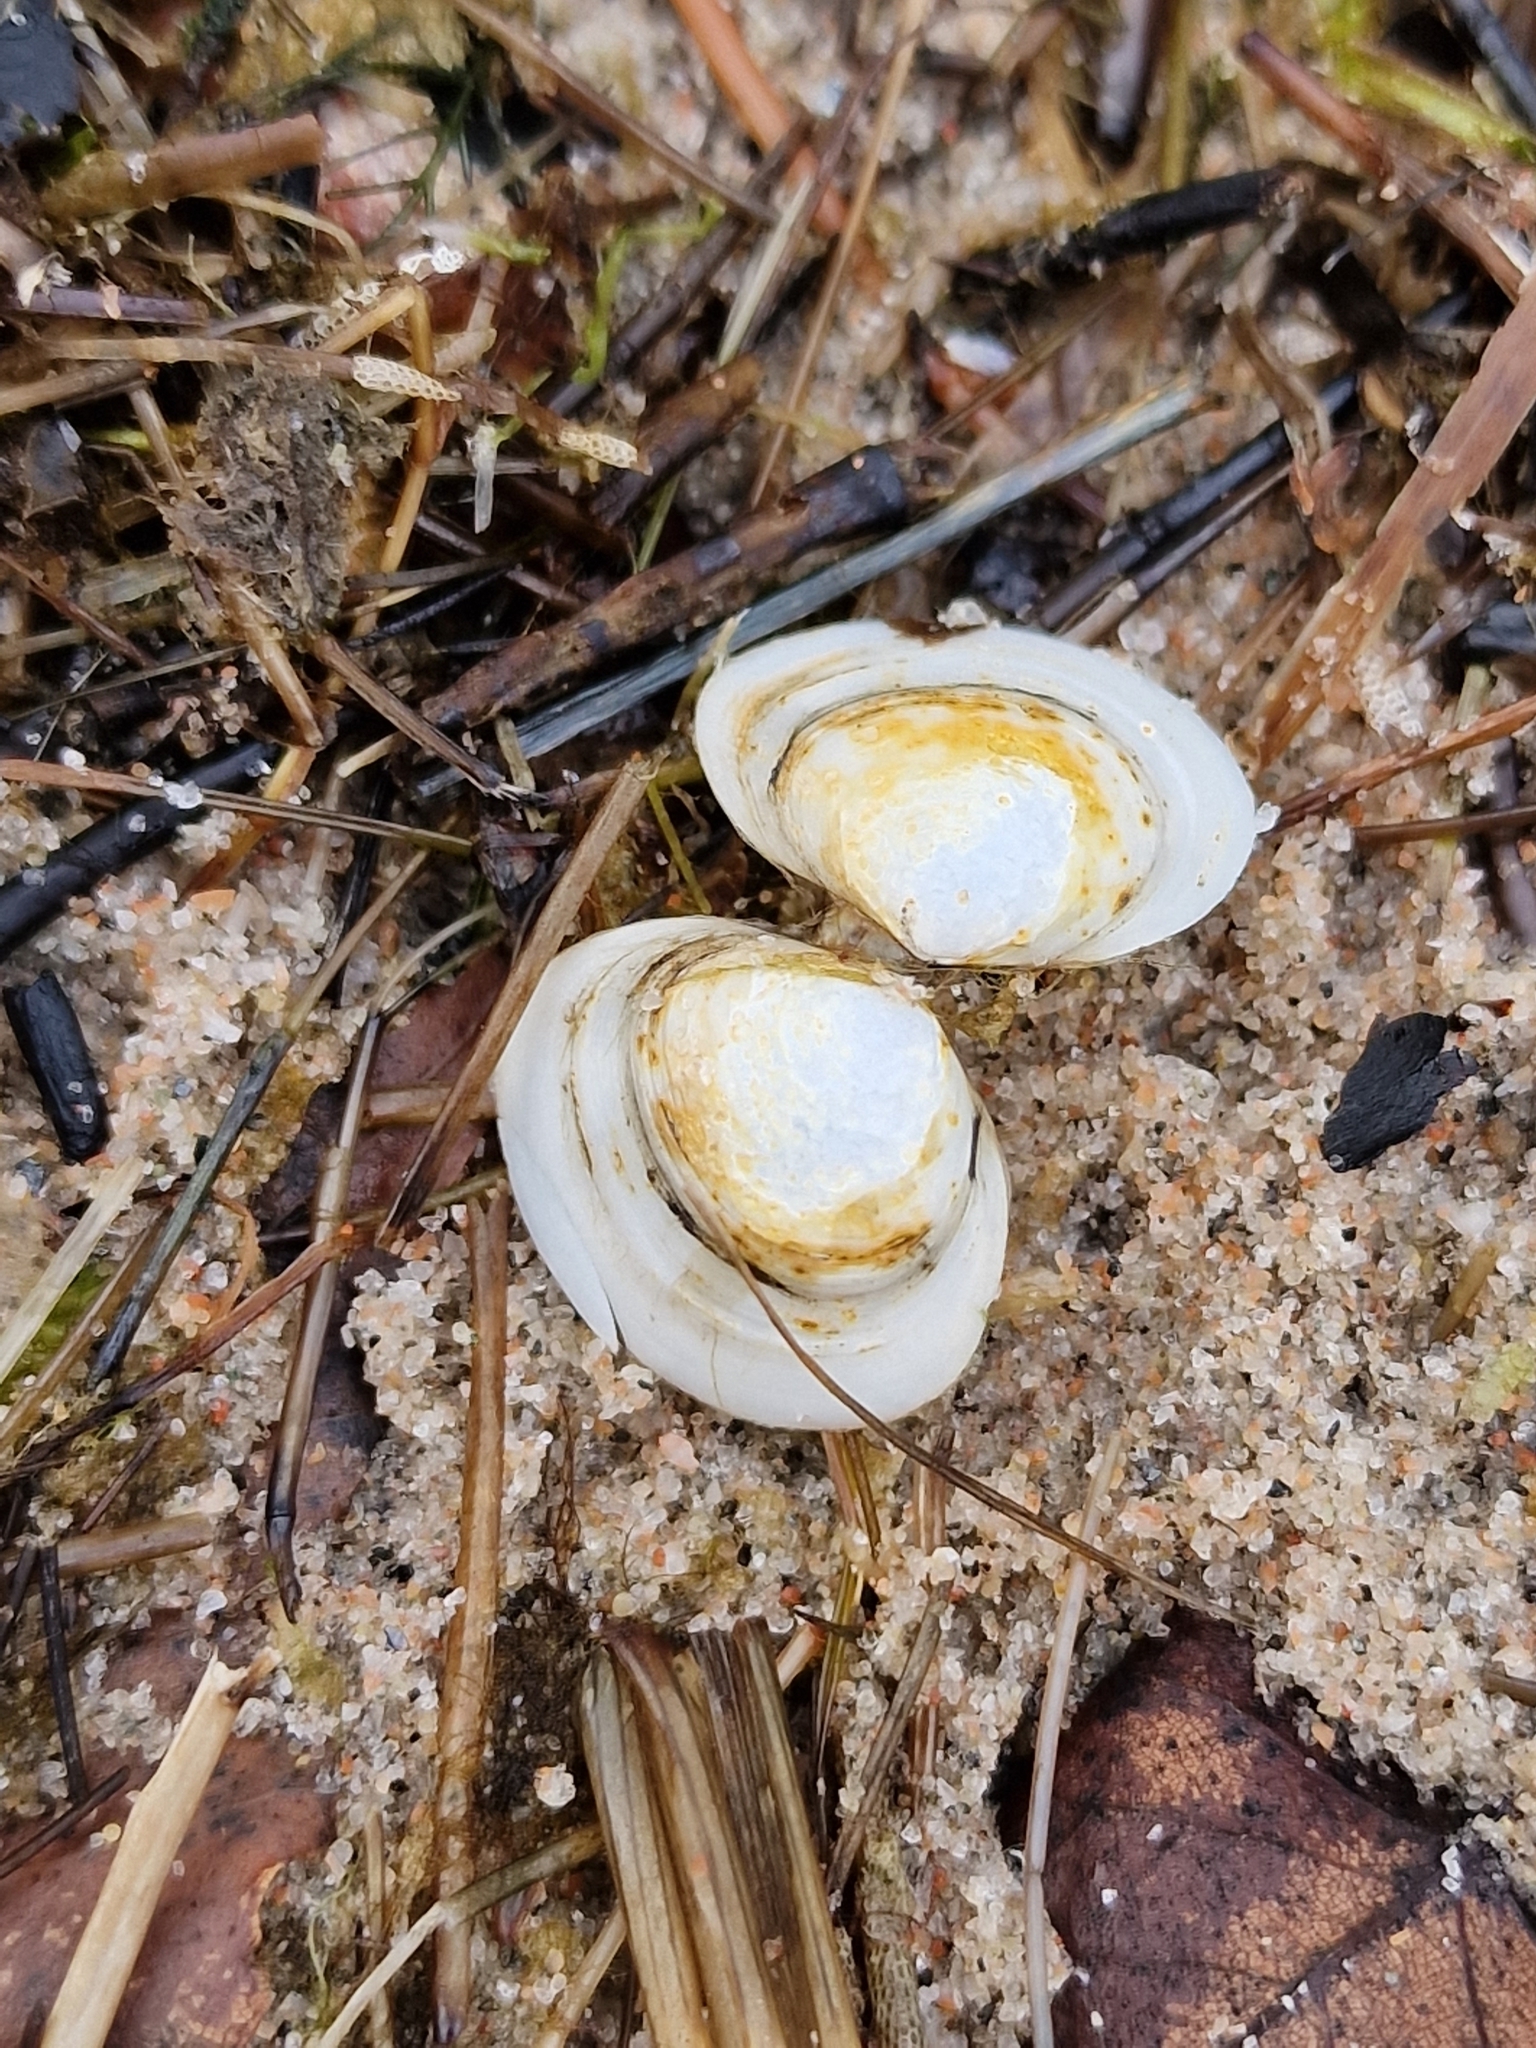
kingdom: Animalia
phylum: Mollusca
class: Bivalvia
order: Cardiida
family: Tellinidae
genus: Macoma
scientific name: Macoma balthica
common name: Baltic tellin
